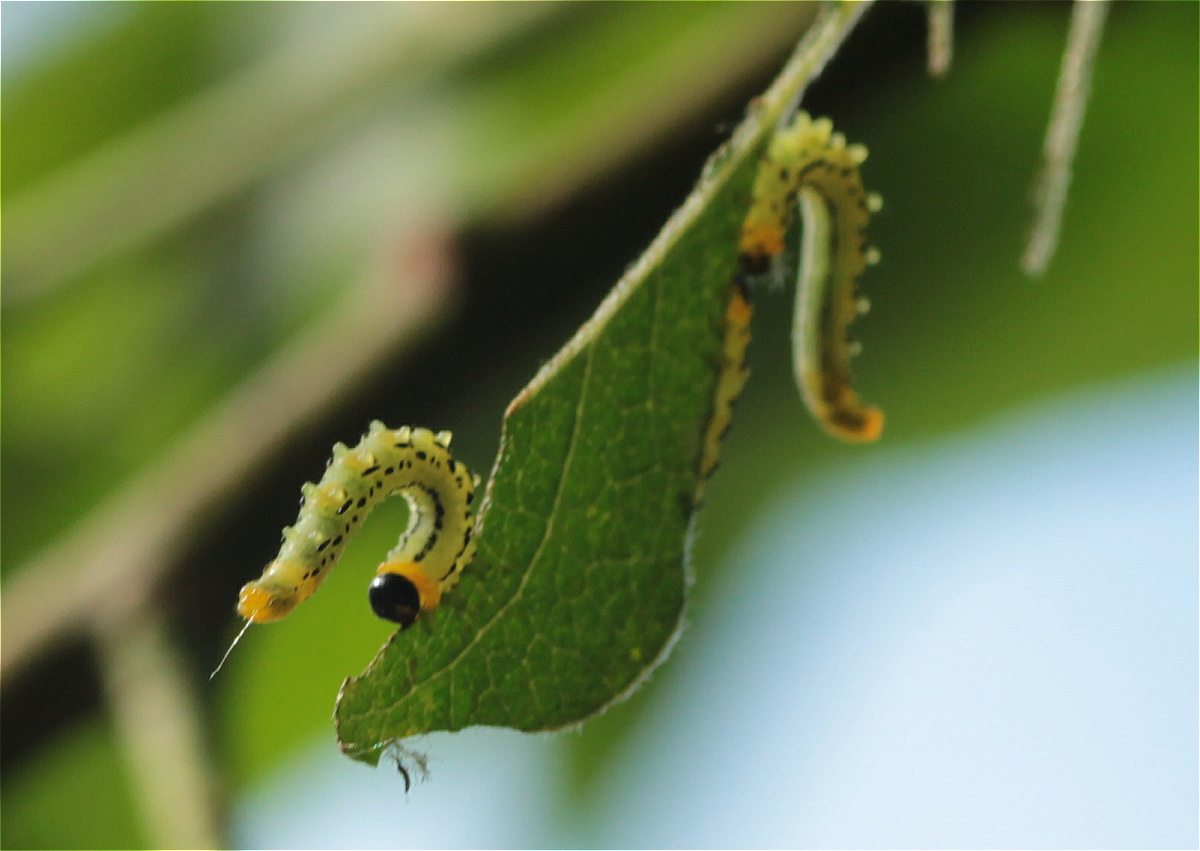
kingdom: Animalia
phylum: Arthropoda
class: Insecta
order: Hymenoptera
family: Tenthredinidae
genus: Nematus
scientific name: Nematus pavidus
